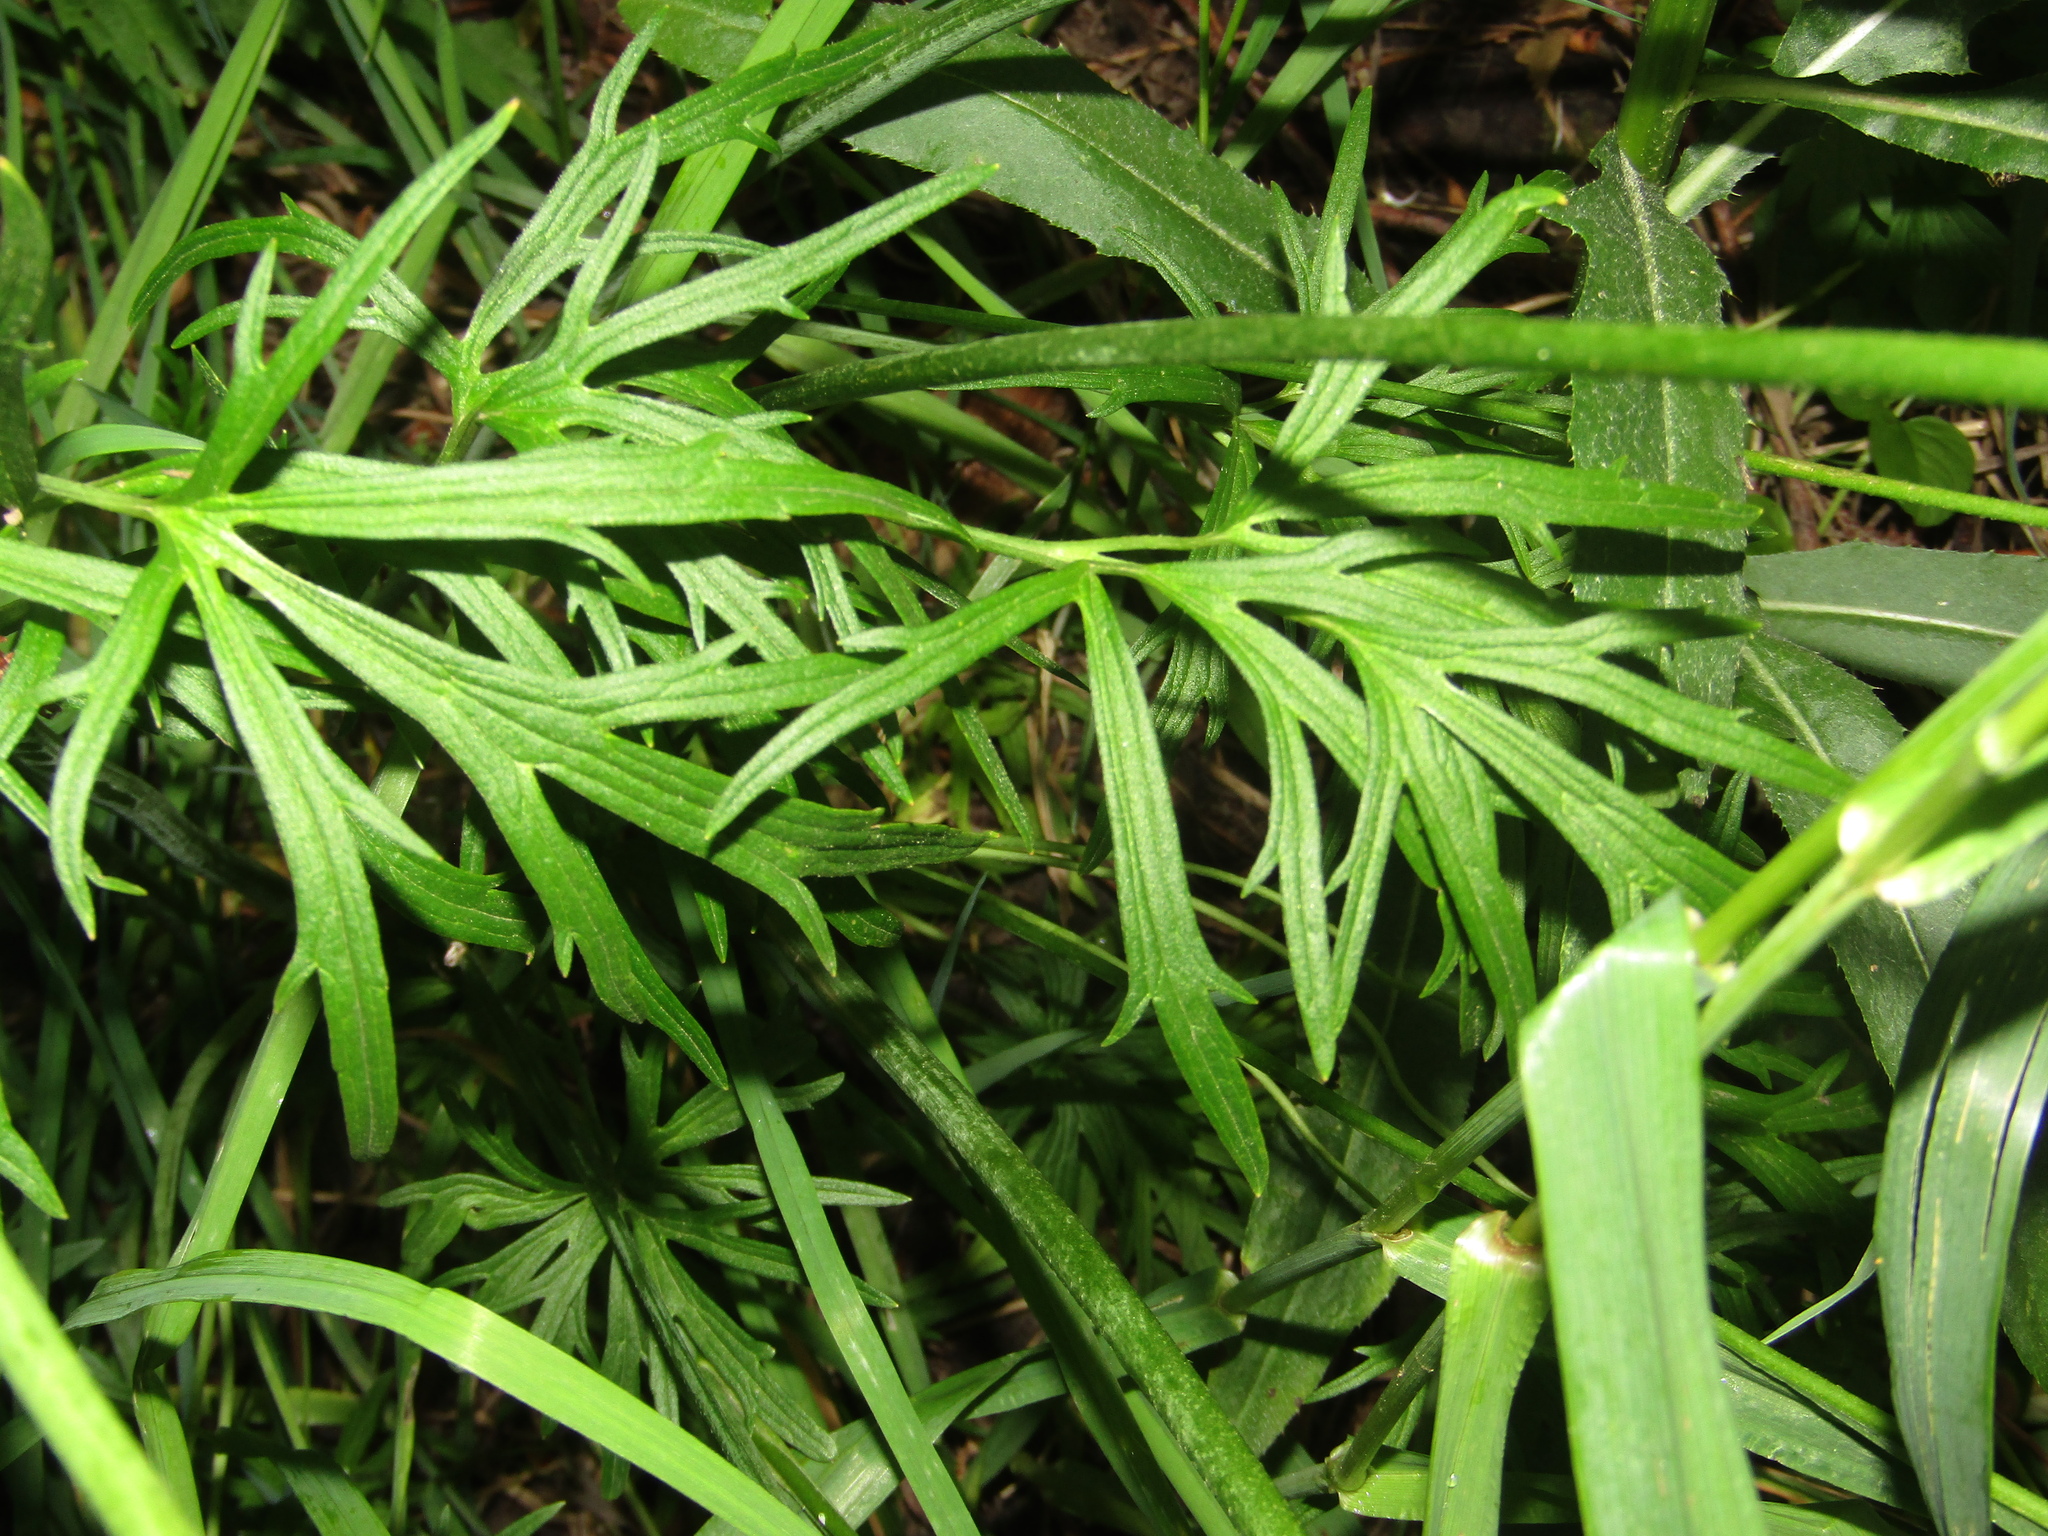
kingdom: Plantae
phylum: Tracheophyta
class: Magnoliopsida
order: Ranunculales
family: Ranunculaceae
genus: Ranunculus
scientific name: Ranunculus acris
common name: Meadow buttercup
